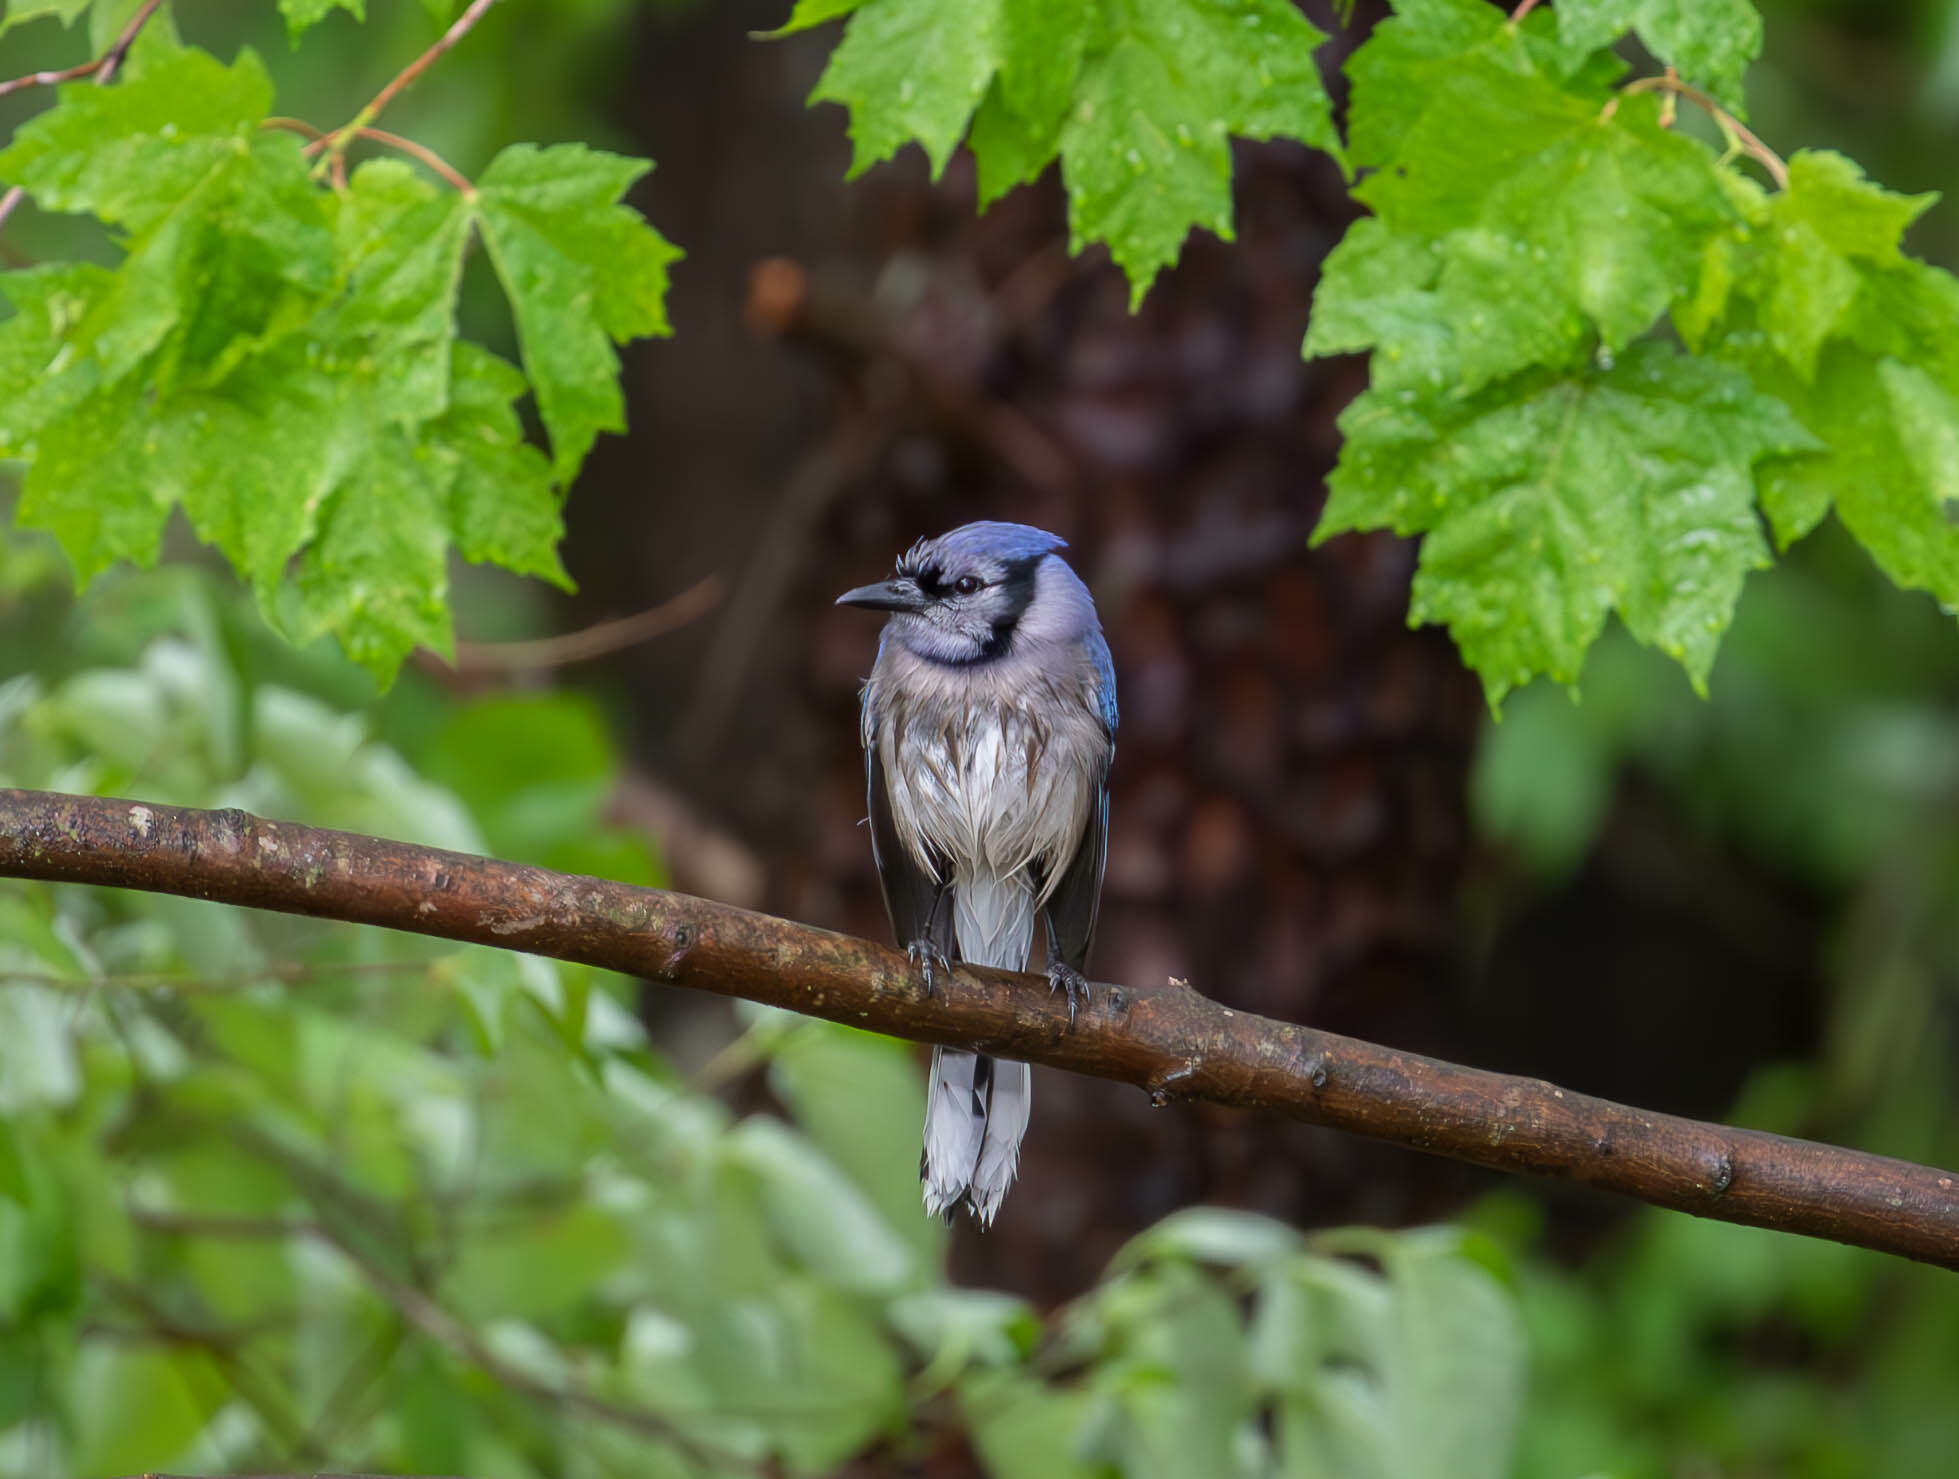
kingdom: Animalia
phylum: Chordata
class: Aves
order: Passeriformes
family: Corvidae
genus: Cyanocitta
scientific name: Cyanocitta cristata
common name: Blue jay
